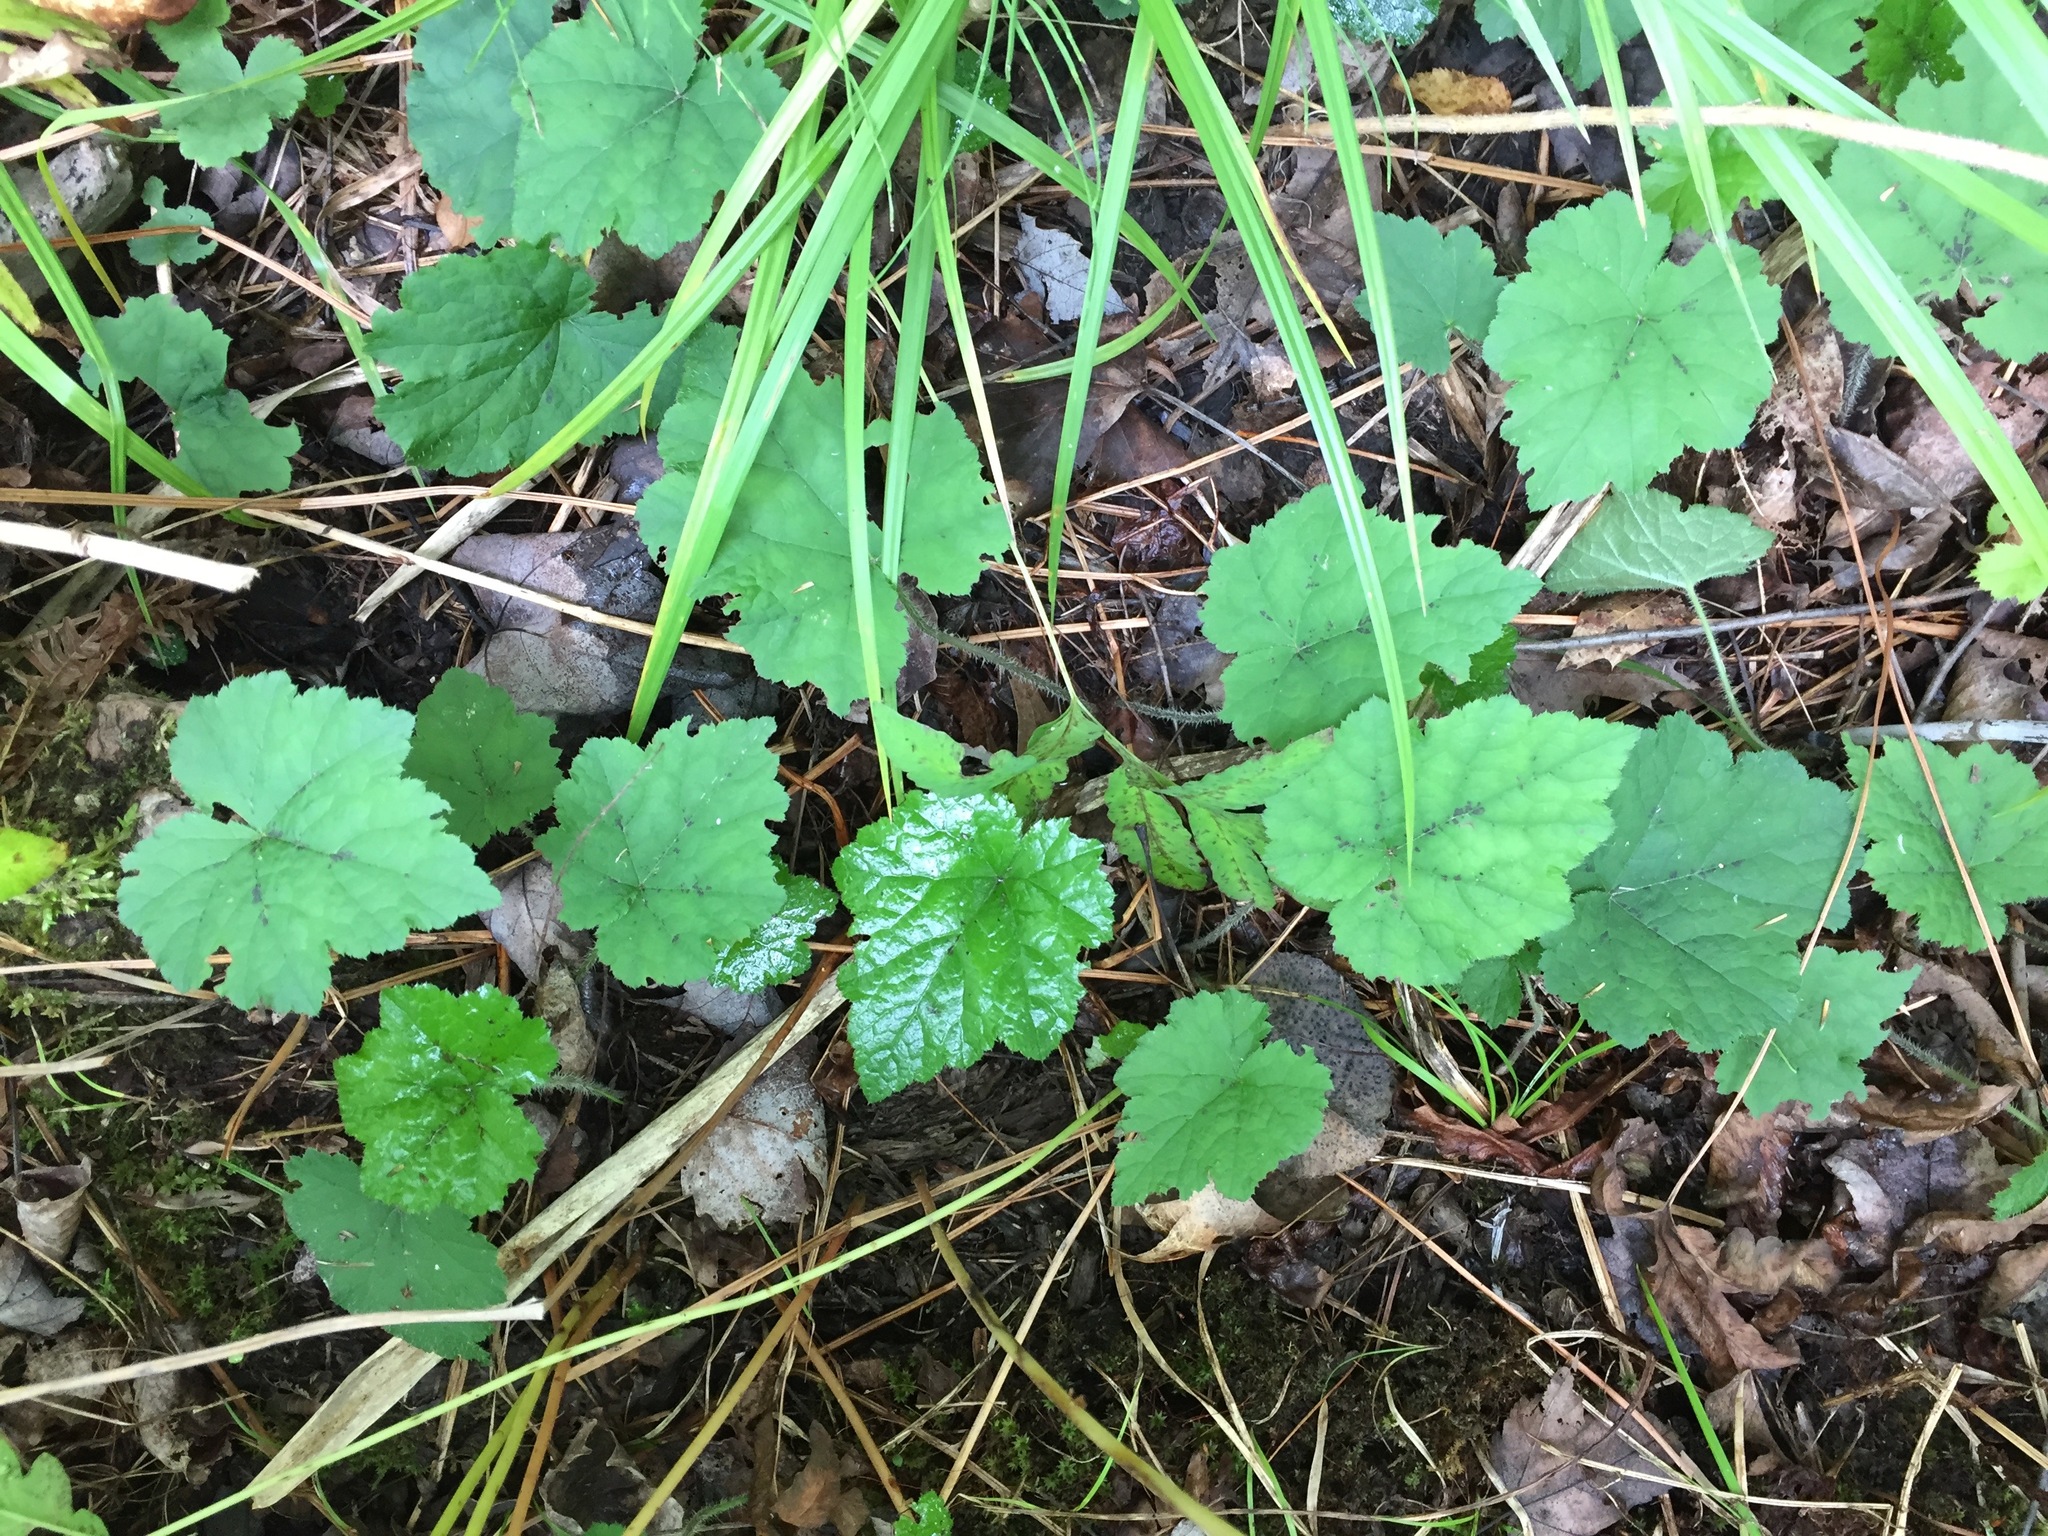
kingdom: Plantae
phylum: Tracheophyta
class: Magnoliopsida
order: Saxifragales
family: Saxifragaceae
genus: Tiarella
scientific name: Tiarella stolonifera
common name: Stoloniferous foamflower
